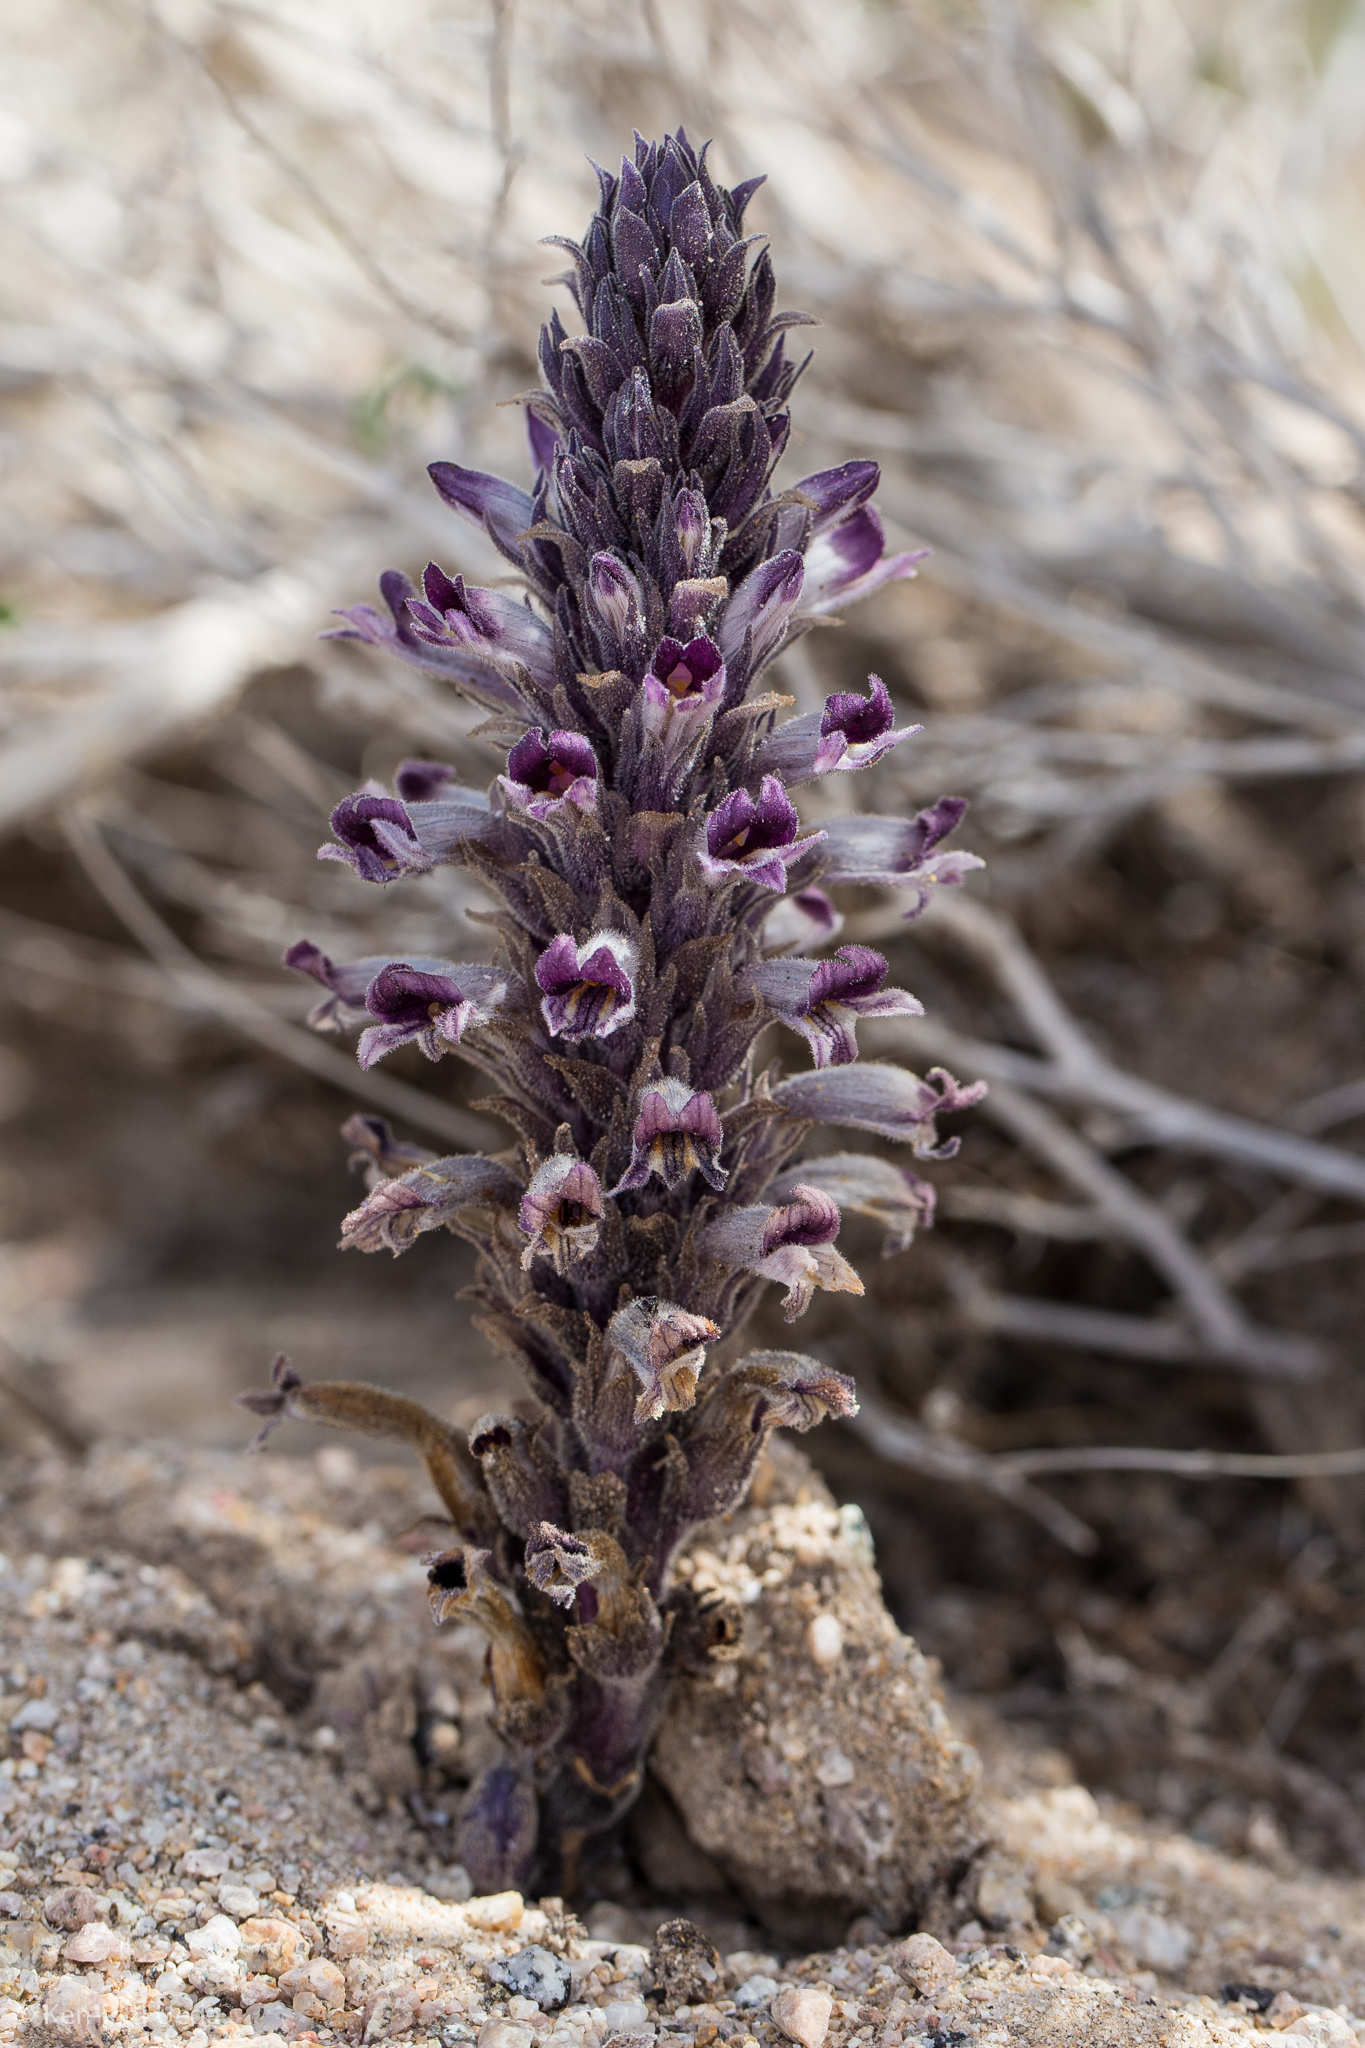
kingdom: Plantae
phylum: Tracheophyta
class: Magnoliopsida
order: Lamiales
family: Orobanchaceae
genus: Aphyllon
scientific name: Aphyllon cooperi
